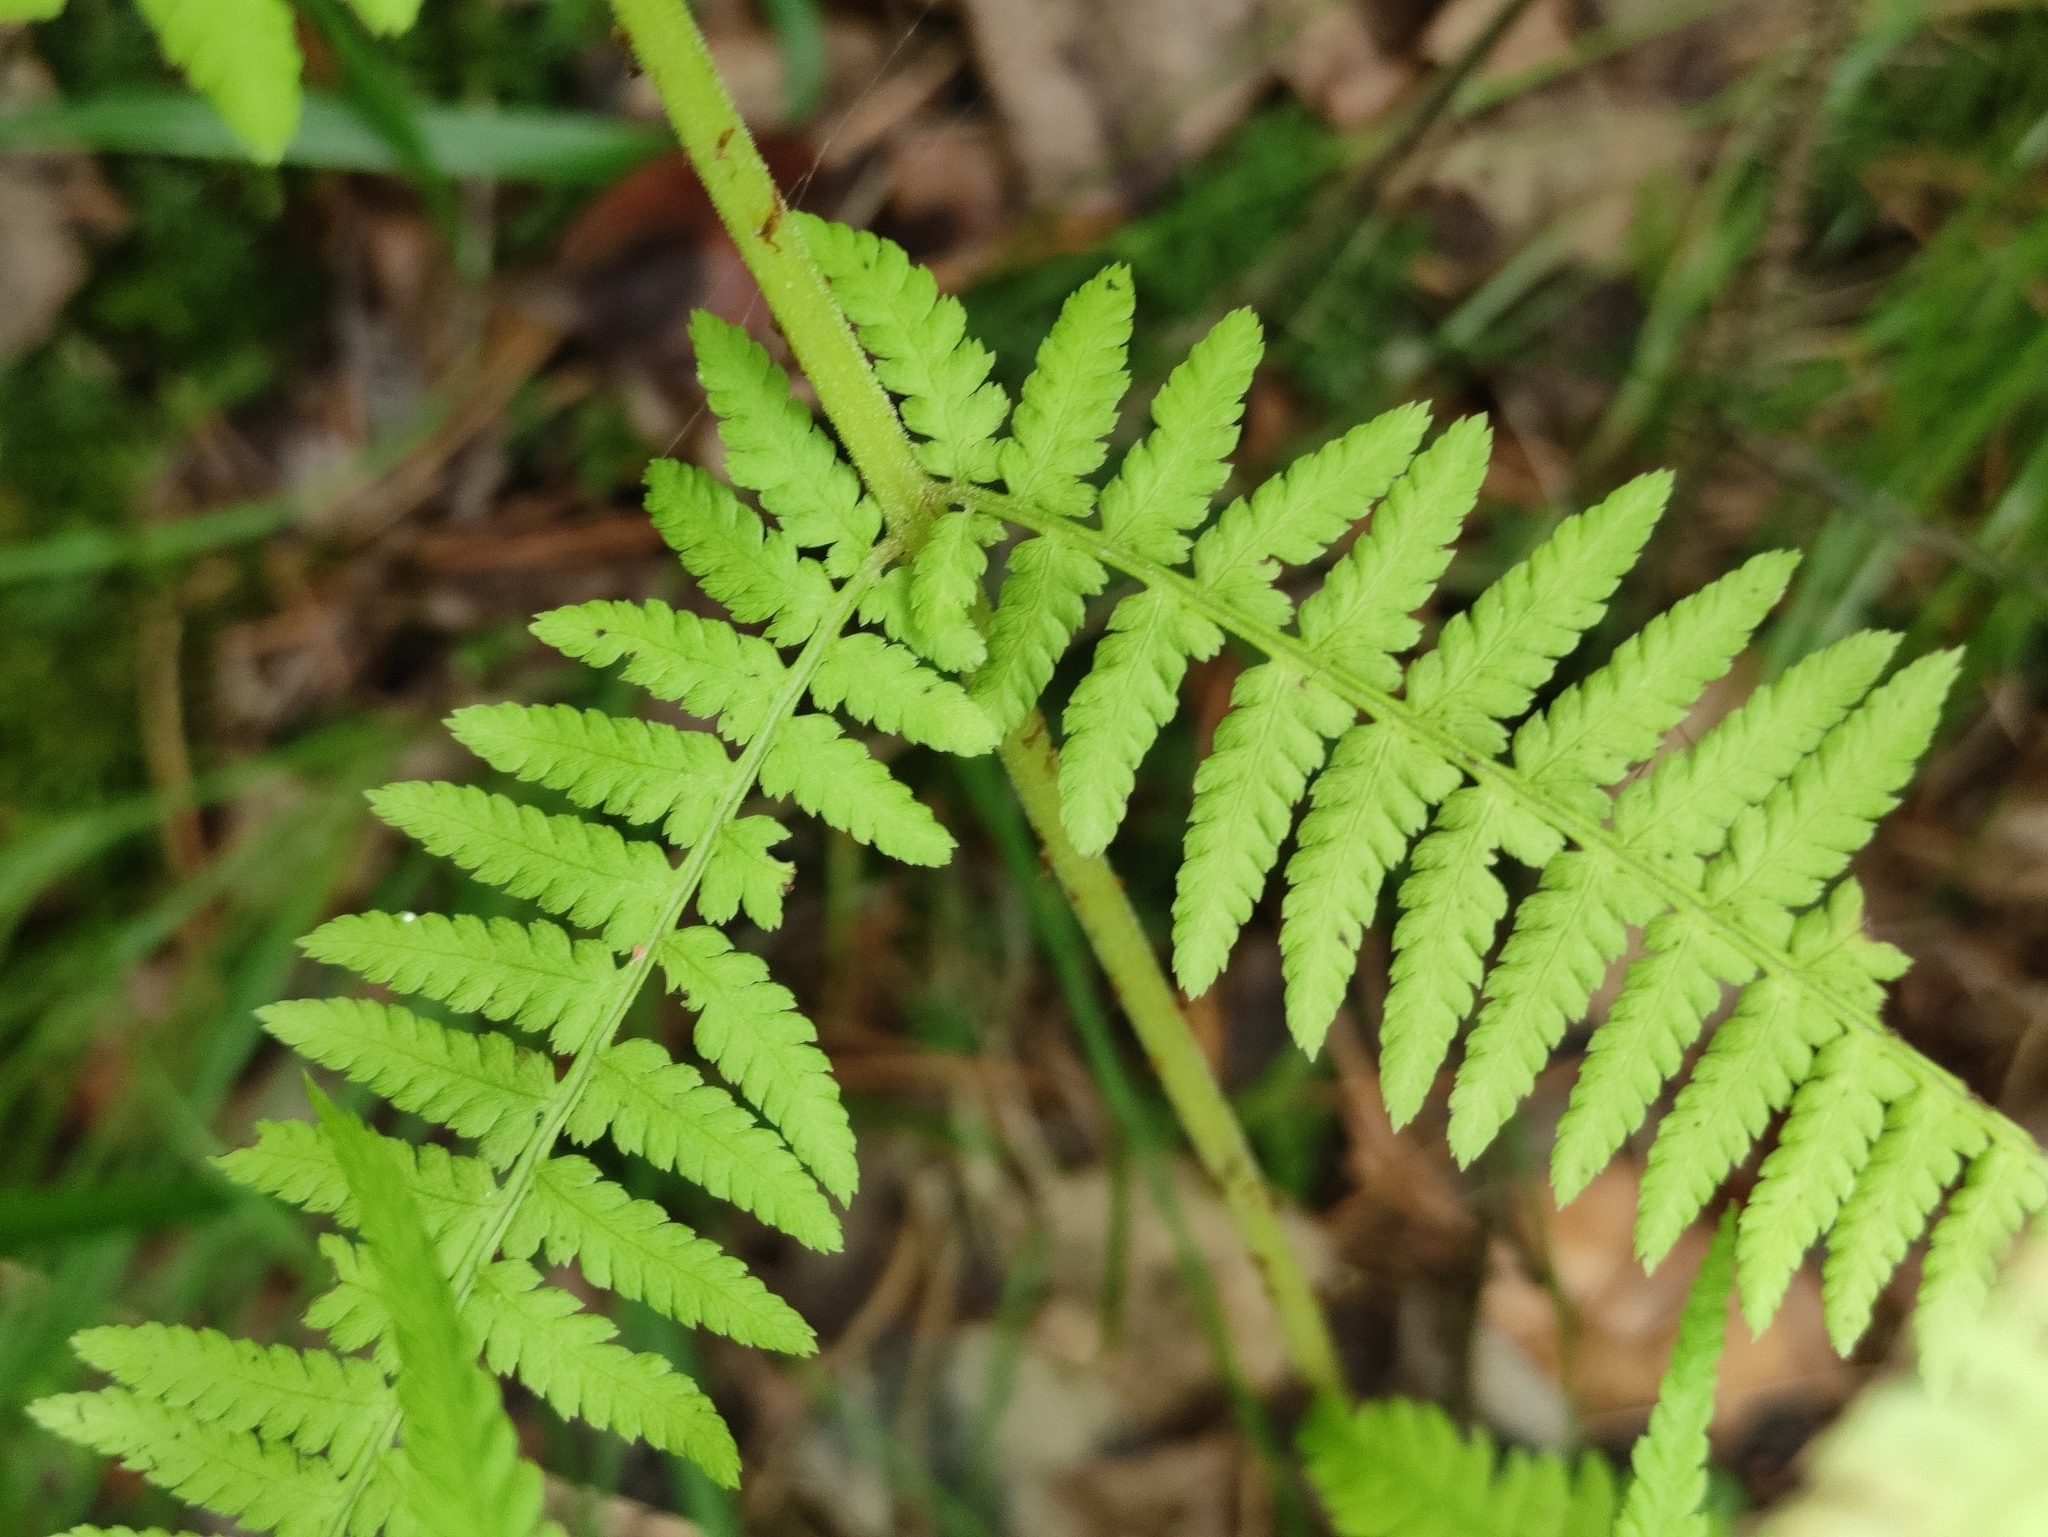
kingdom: Plantae
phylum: Tracheophyta
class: Polypodiopsida
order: Polypodiales
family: Athyriaceae
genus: Athyrium
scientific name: Athyrium filix-femina
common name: Lady fern
